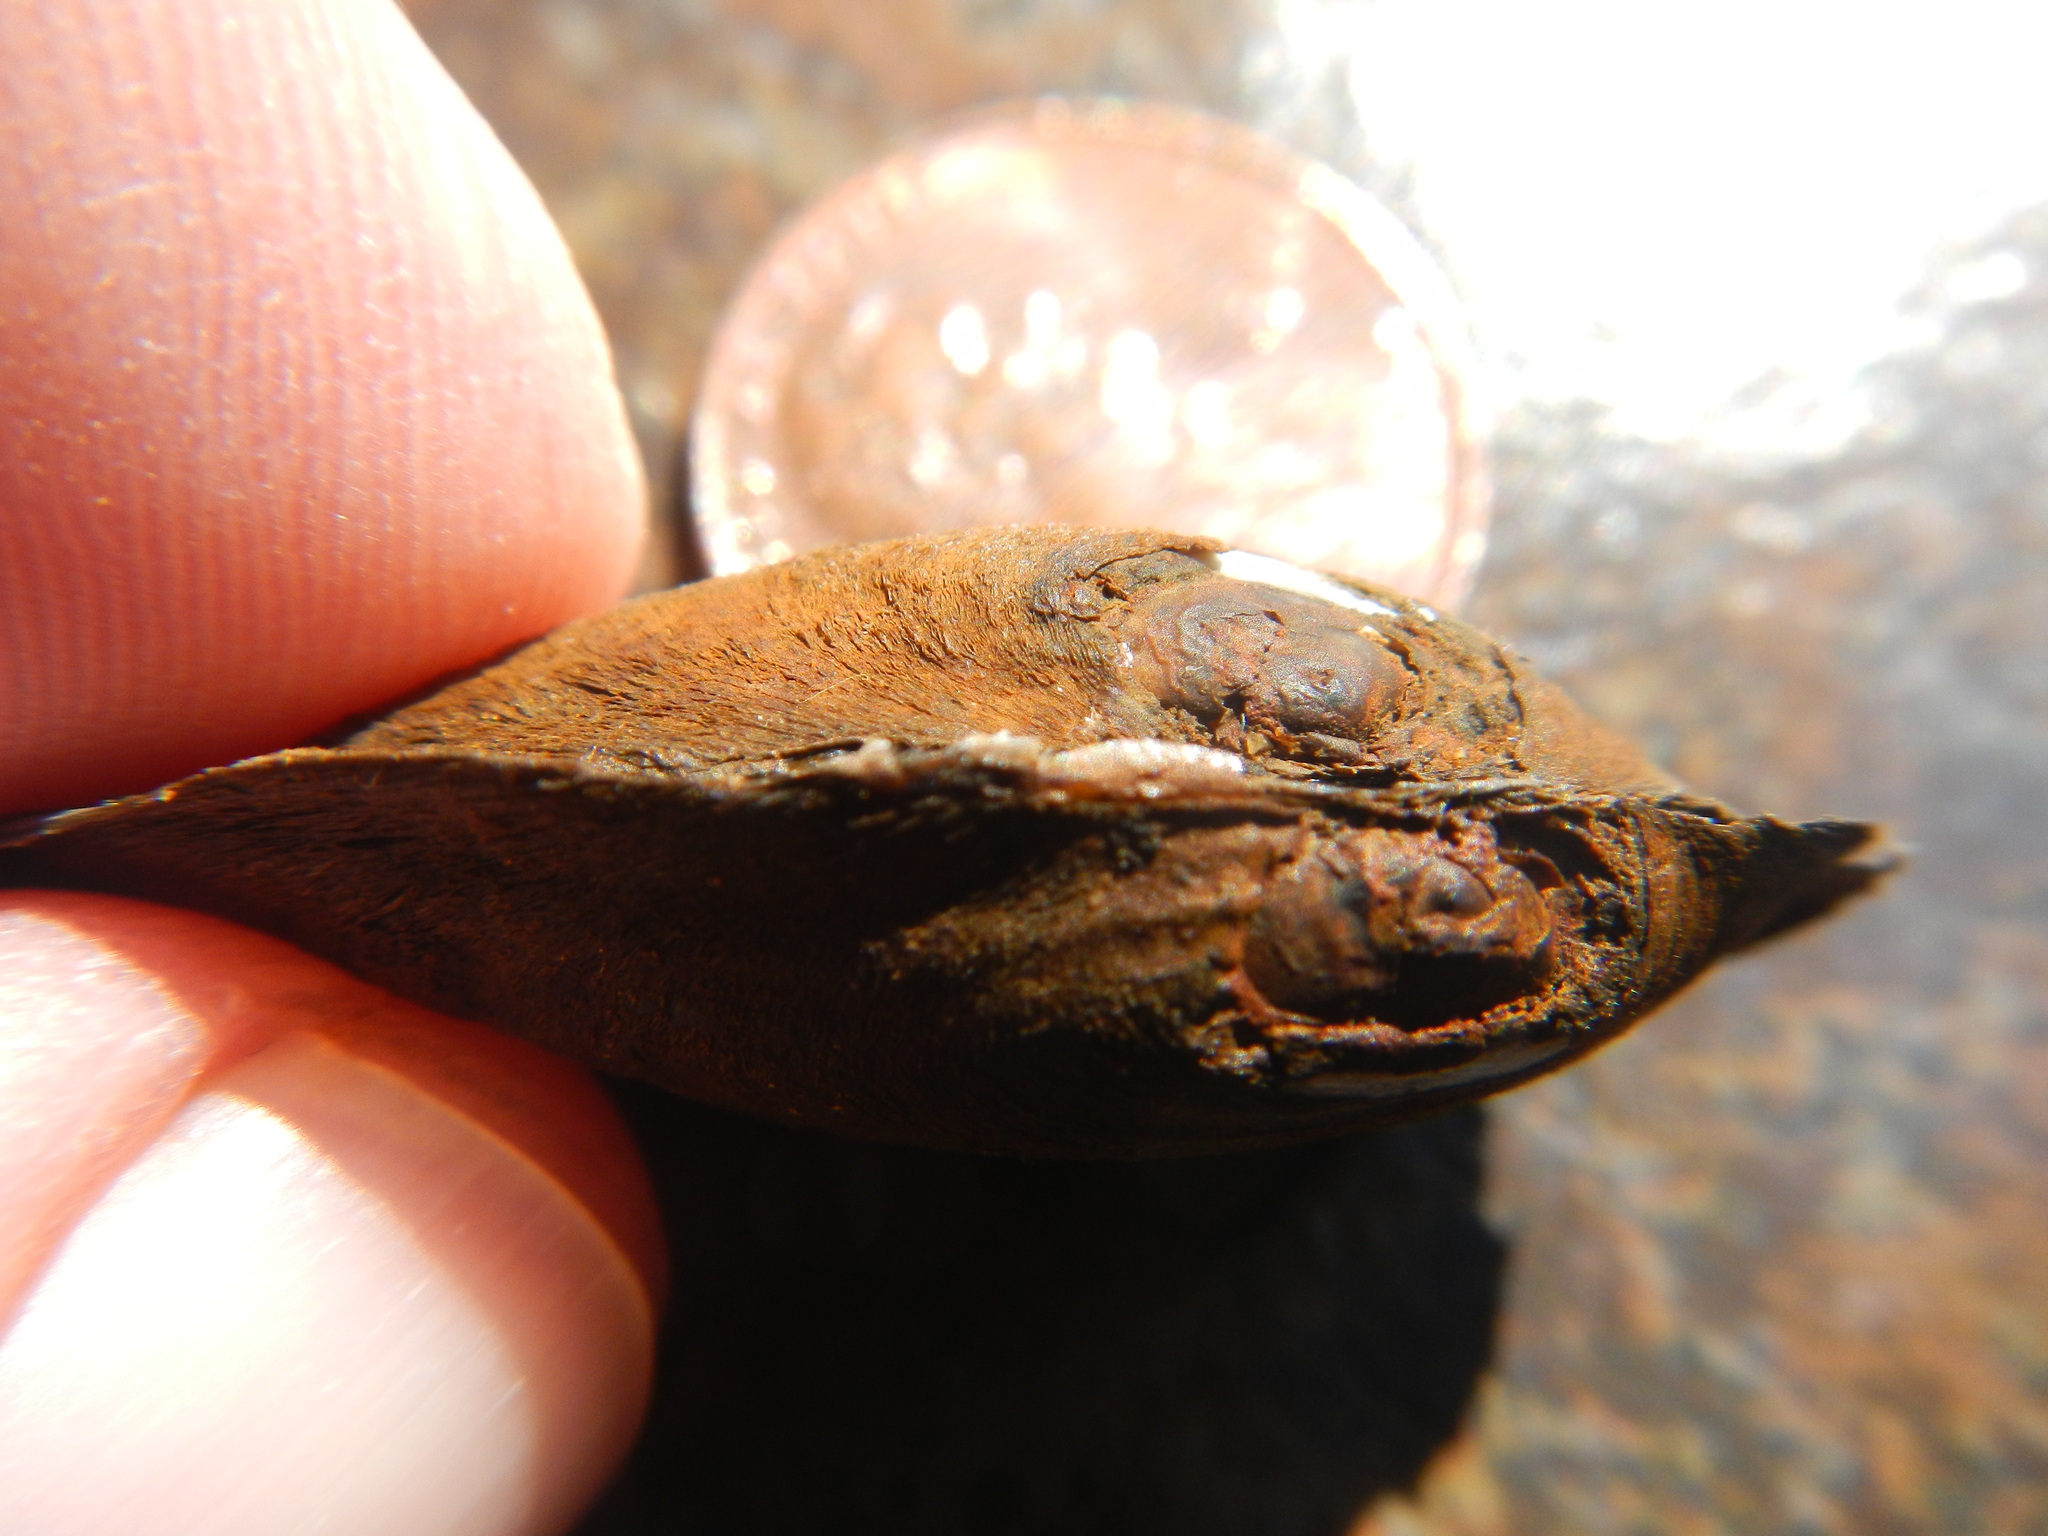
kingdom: Animalia
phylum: Mollusca
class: Bivalvia
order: Unionida
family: Unionidae
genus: Toxolasma
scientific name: Toxolasma texasiense
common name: Texas lilliput
